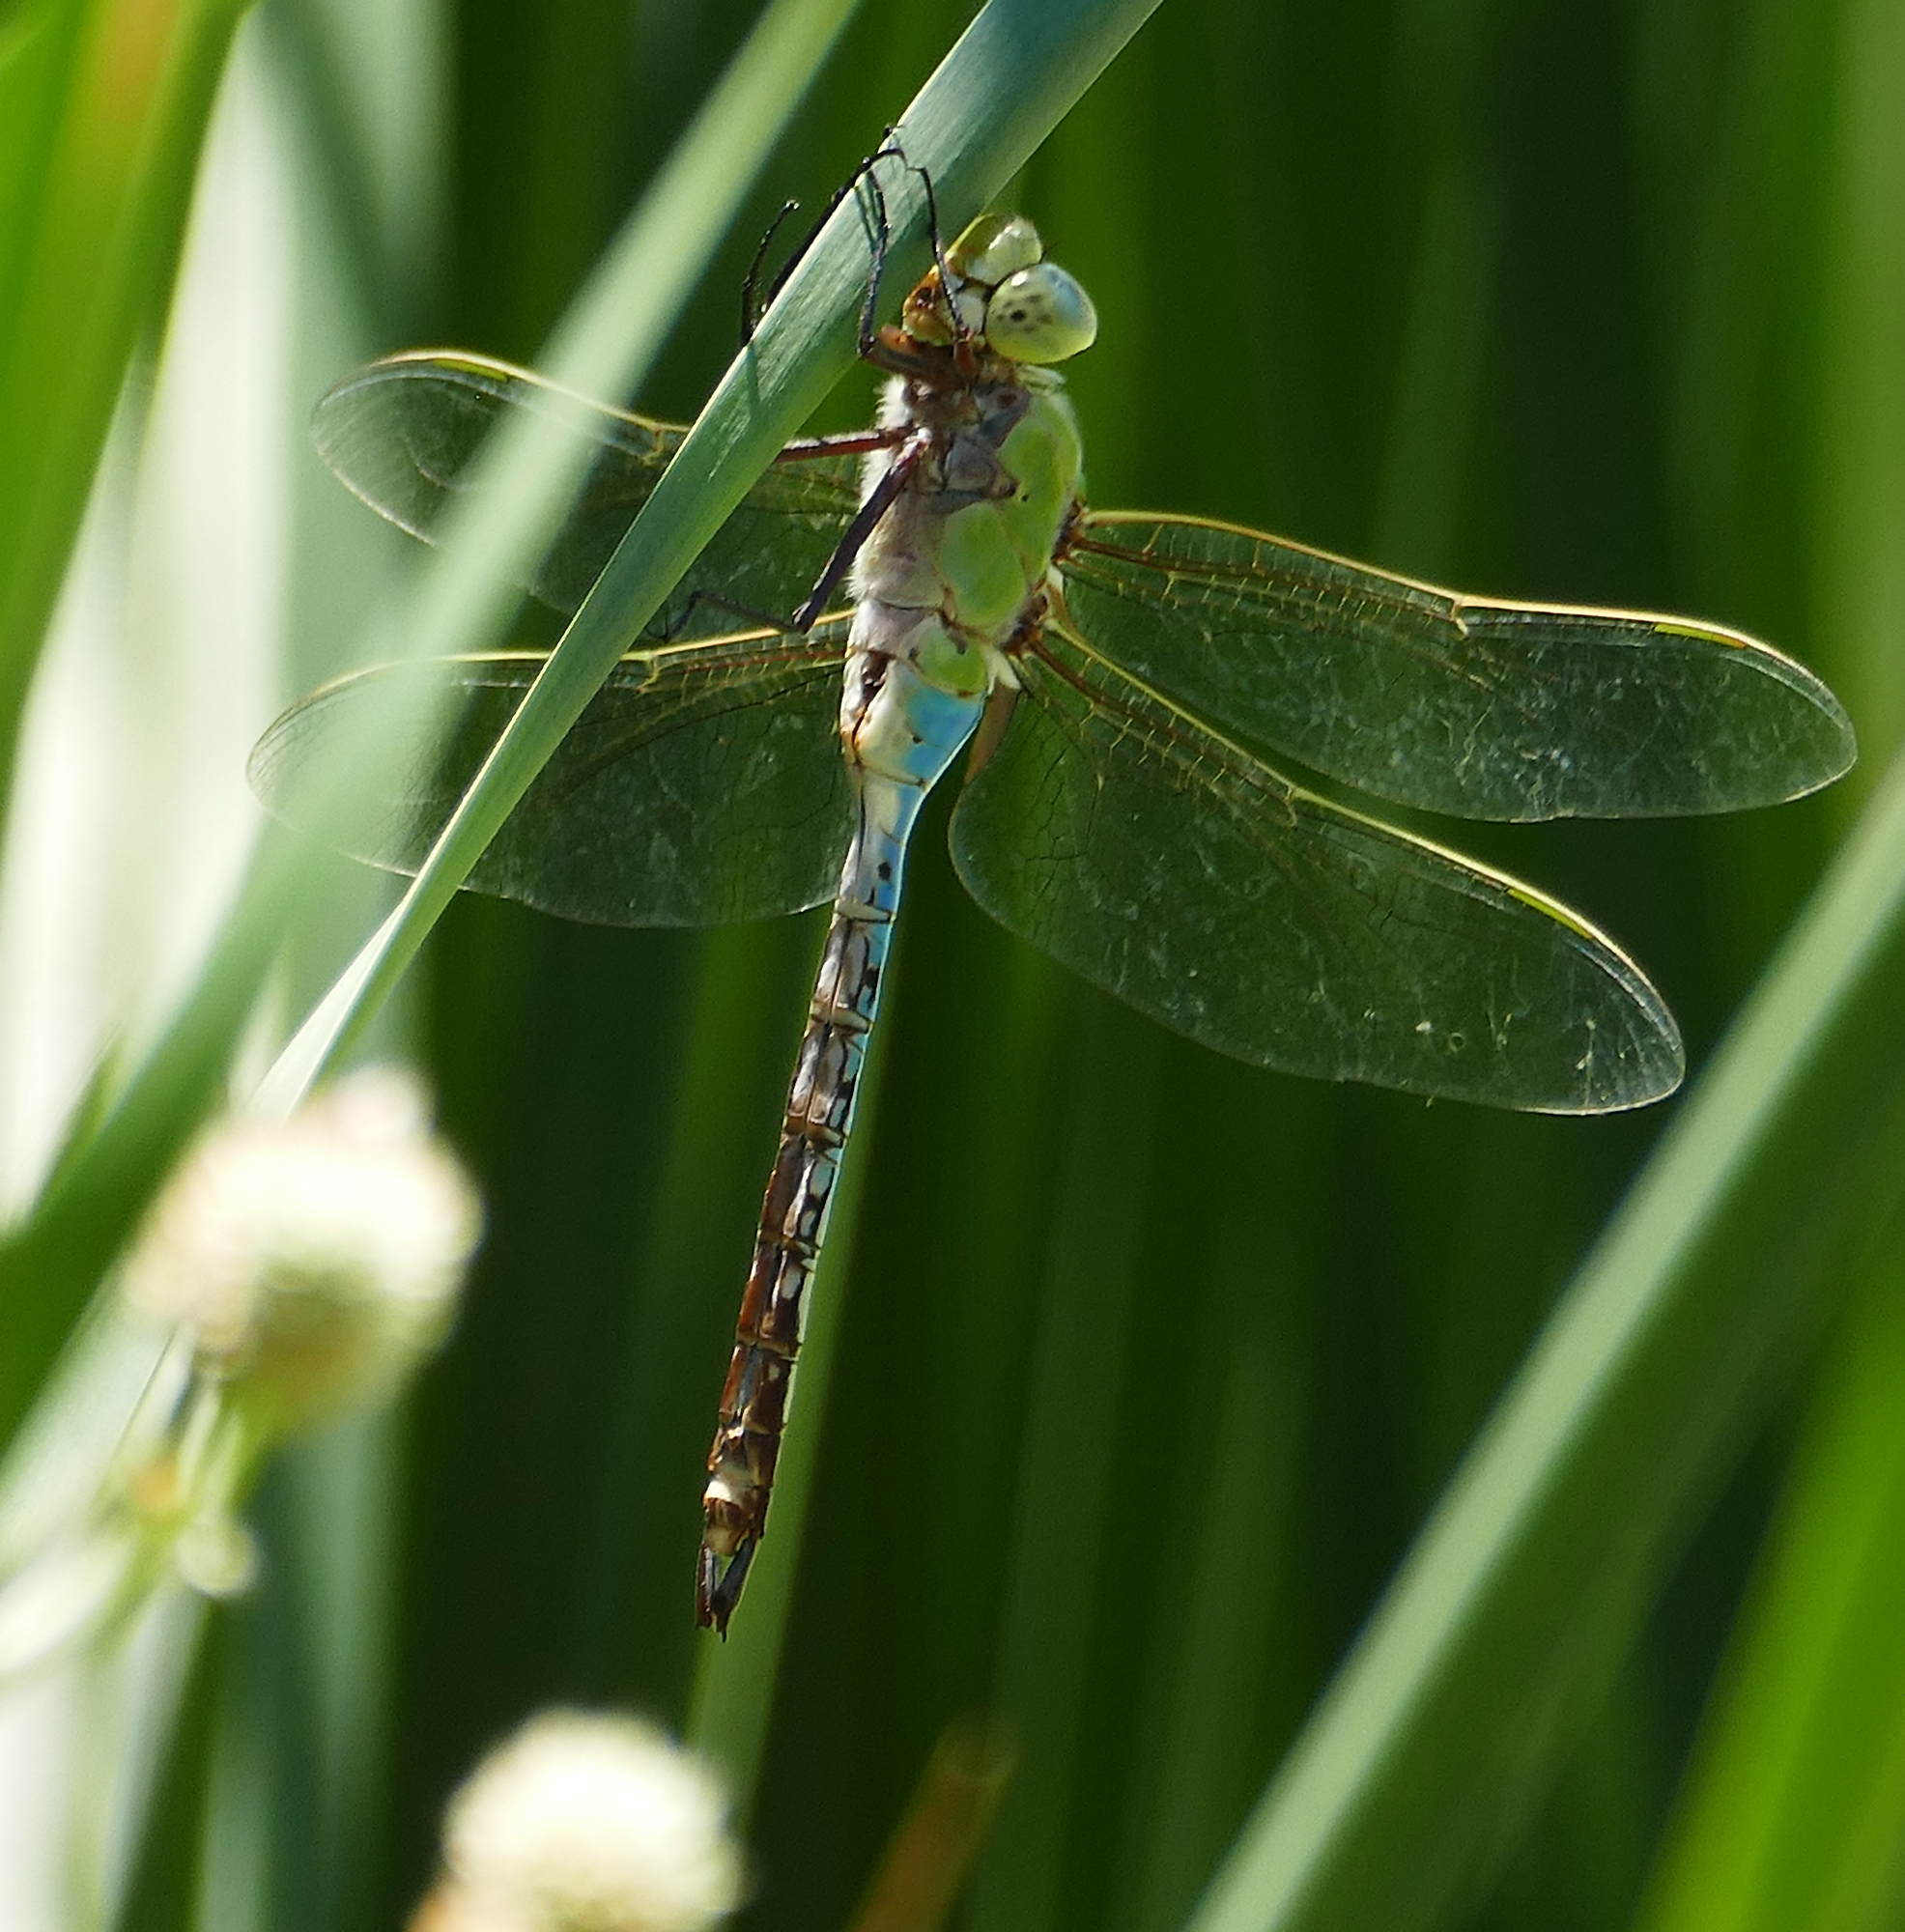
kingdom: Animalia
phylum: Arthropoda
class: Insecta
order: Odonata
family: Aeshnidae
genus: Anax
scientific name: Anax junius
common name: Common green darner
